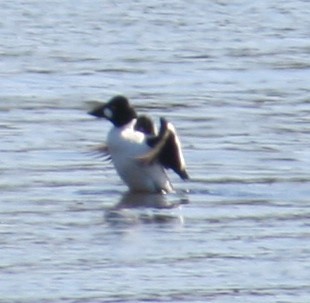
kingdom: Animalia
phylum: Chordata
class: Aves
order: Anseriformes
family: Anatidae
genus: Bucephala
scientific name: Bucephala clangula
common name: Common goldeneye
